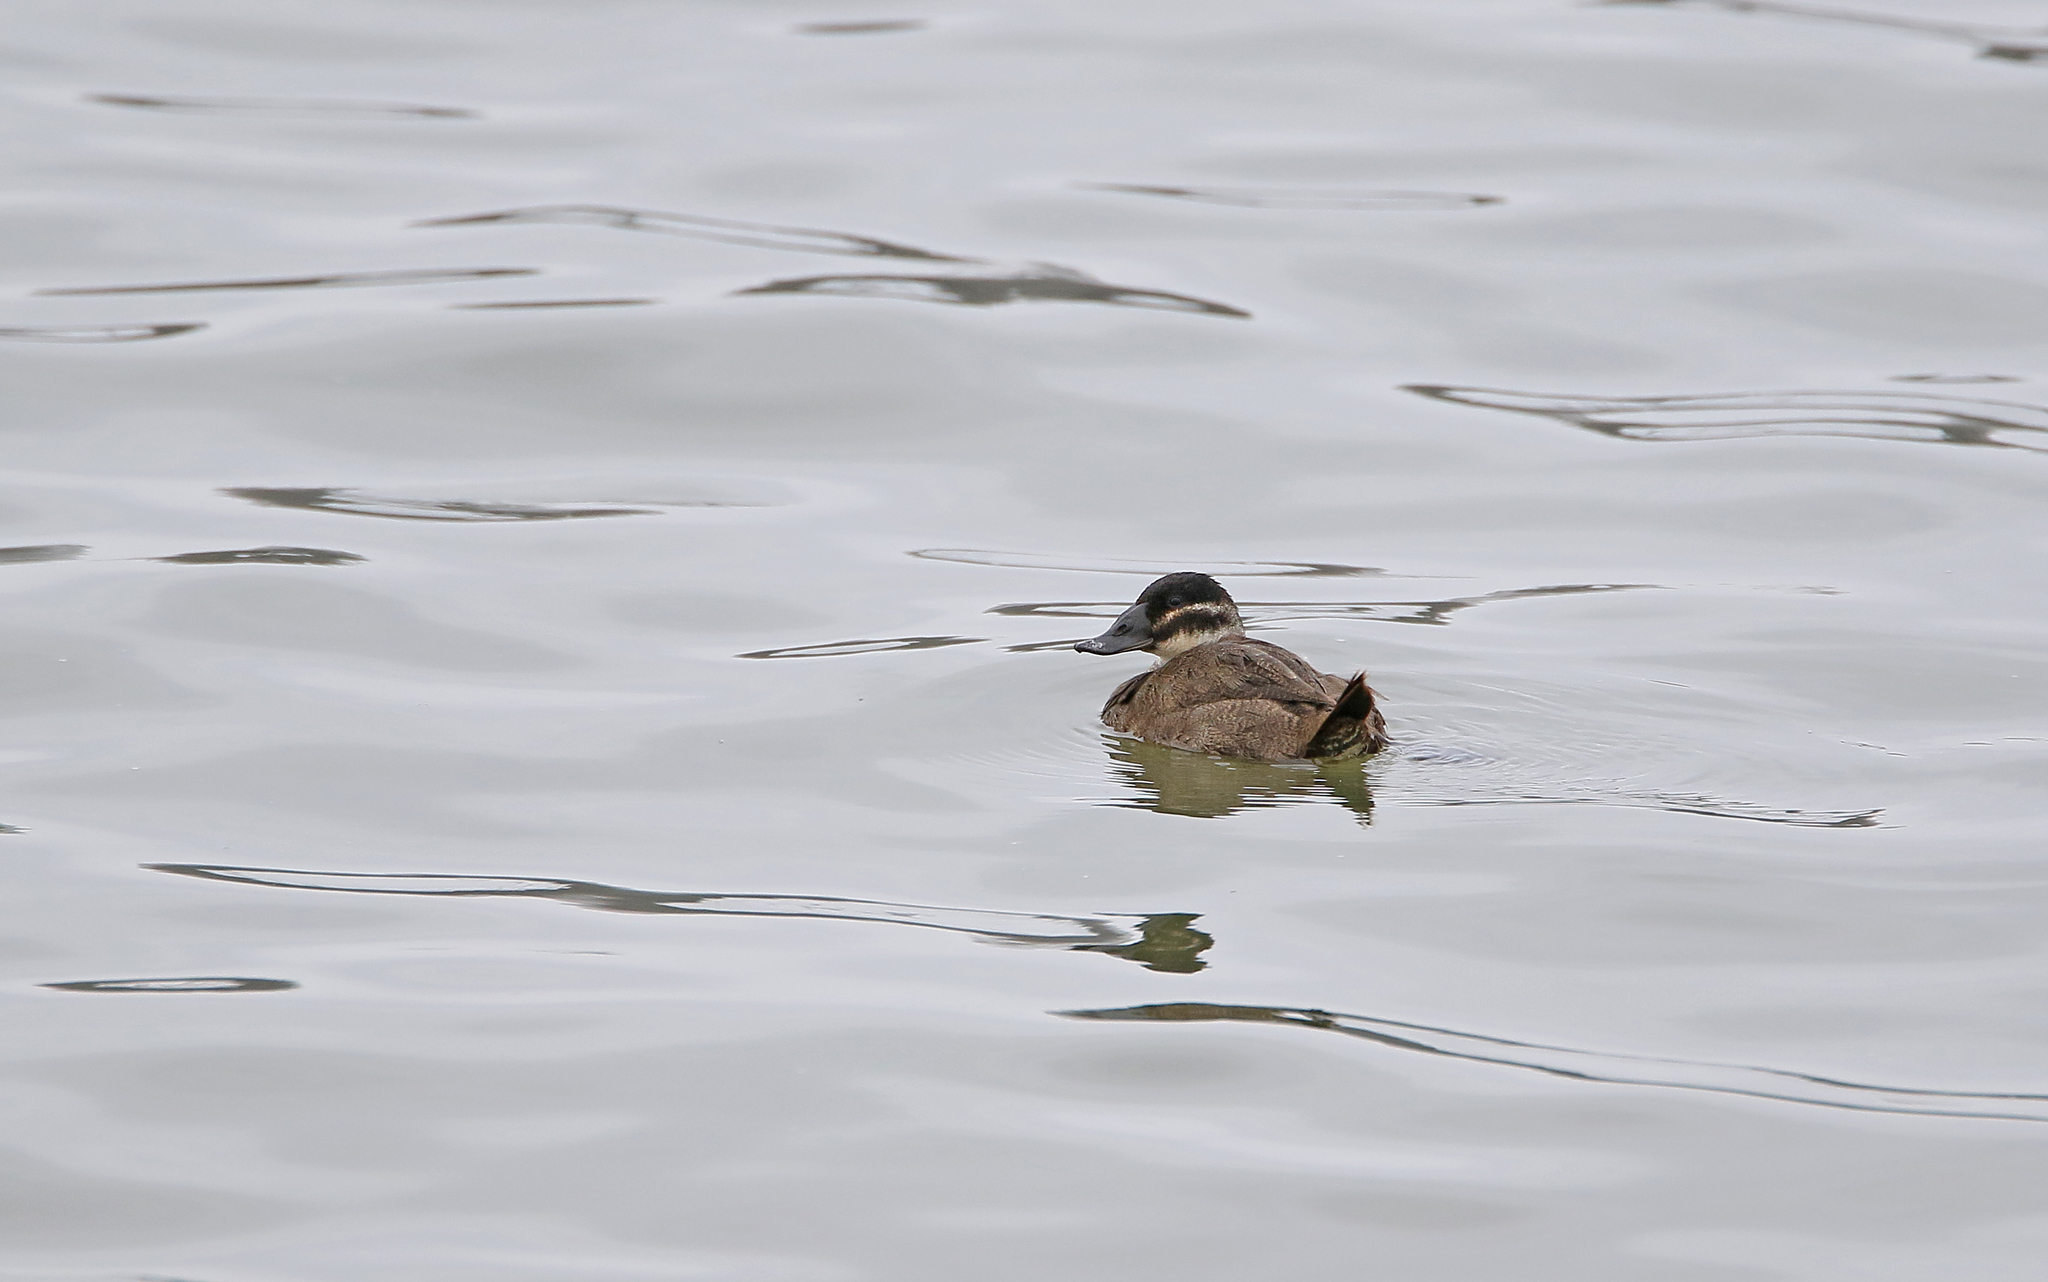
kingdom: Animalia
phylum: Chordata
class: Aves
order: Anseriformes
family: Anatidae
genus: Oxyura
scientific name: Oxyura leucocephala
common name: White-headed duck
